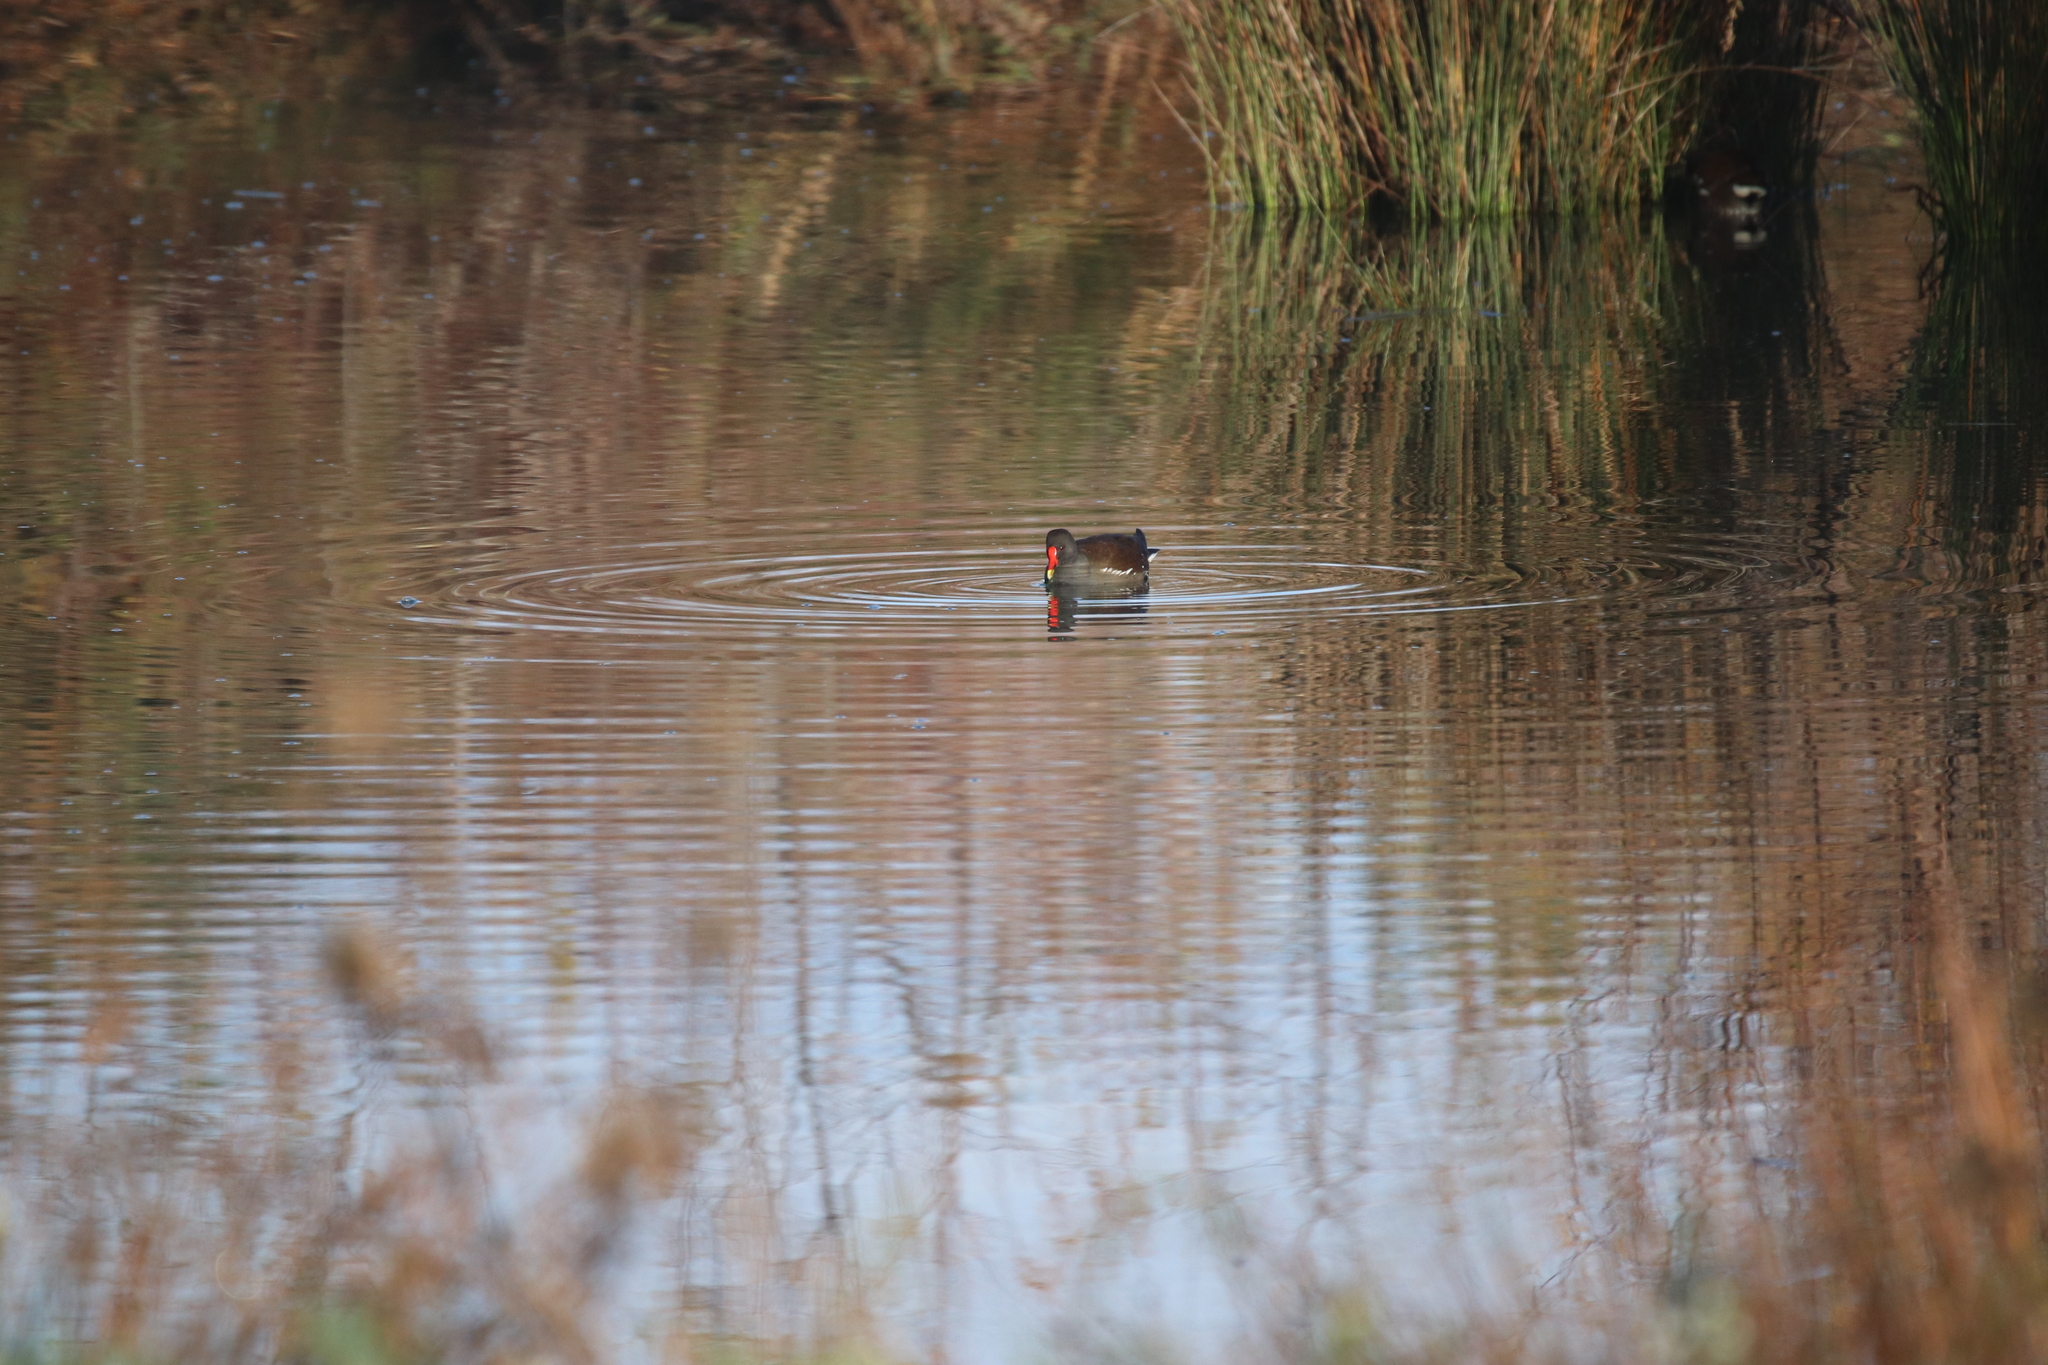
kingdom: Animalia
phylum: Chordata
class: Aves
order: Gruiformes
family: Rallidae
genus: Gallinula
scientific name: Gallinula chloropus
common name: Common moorhen
